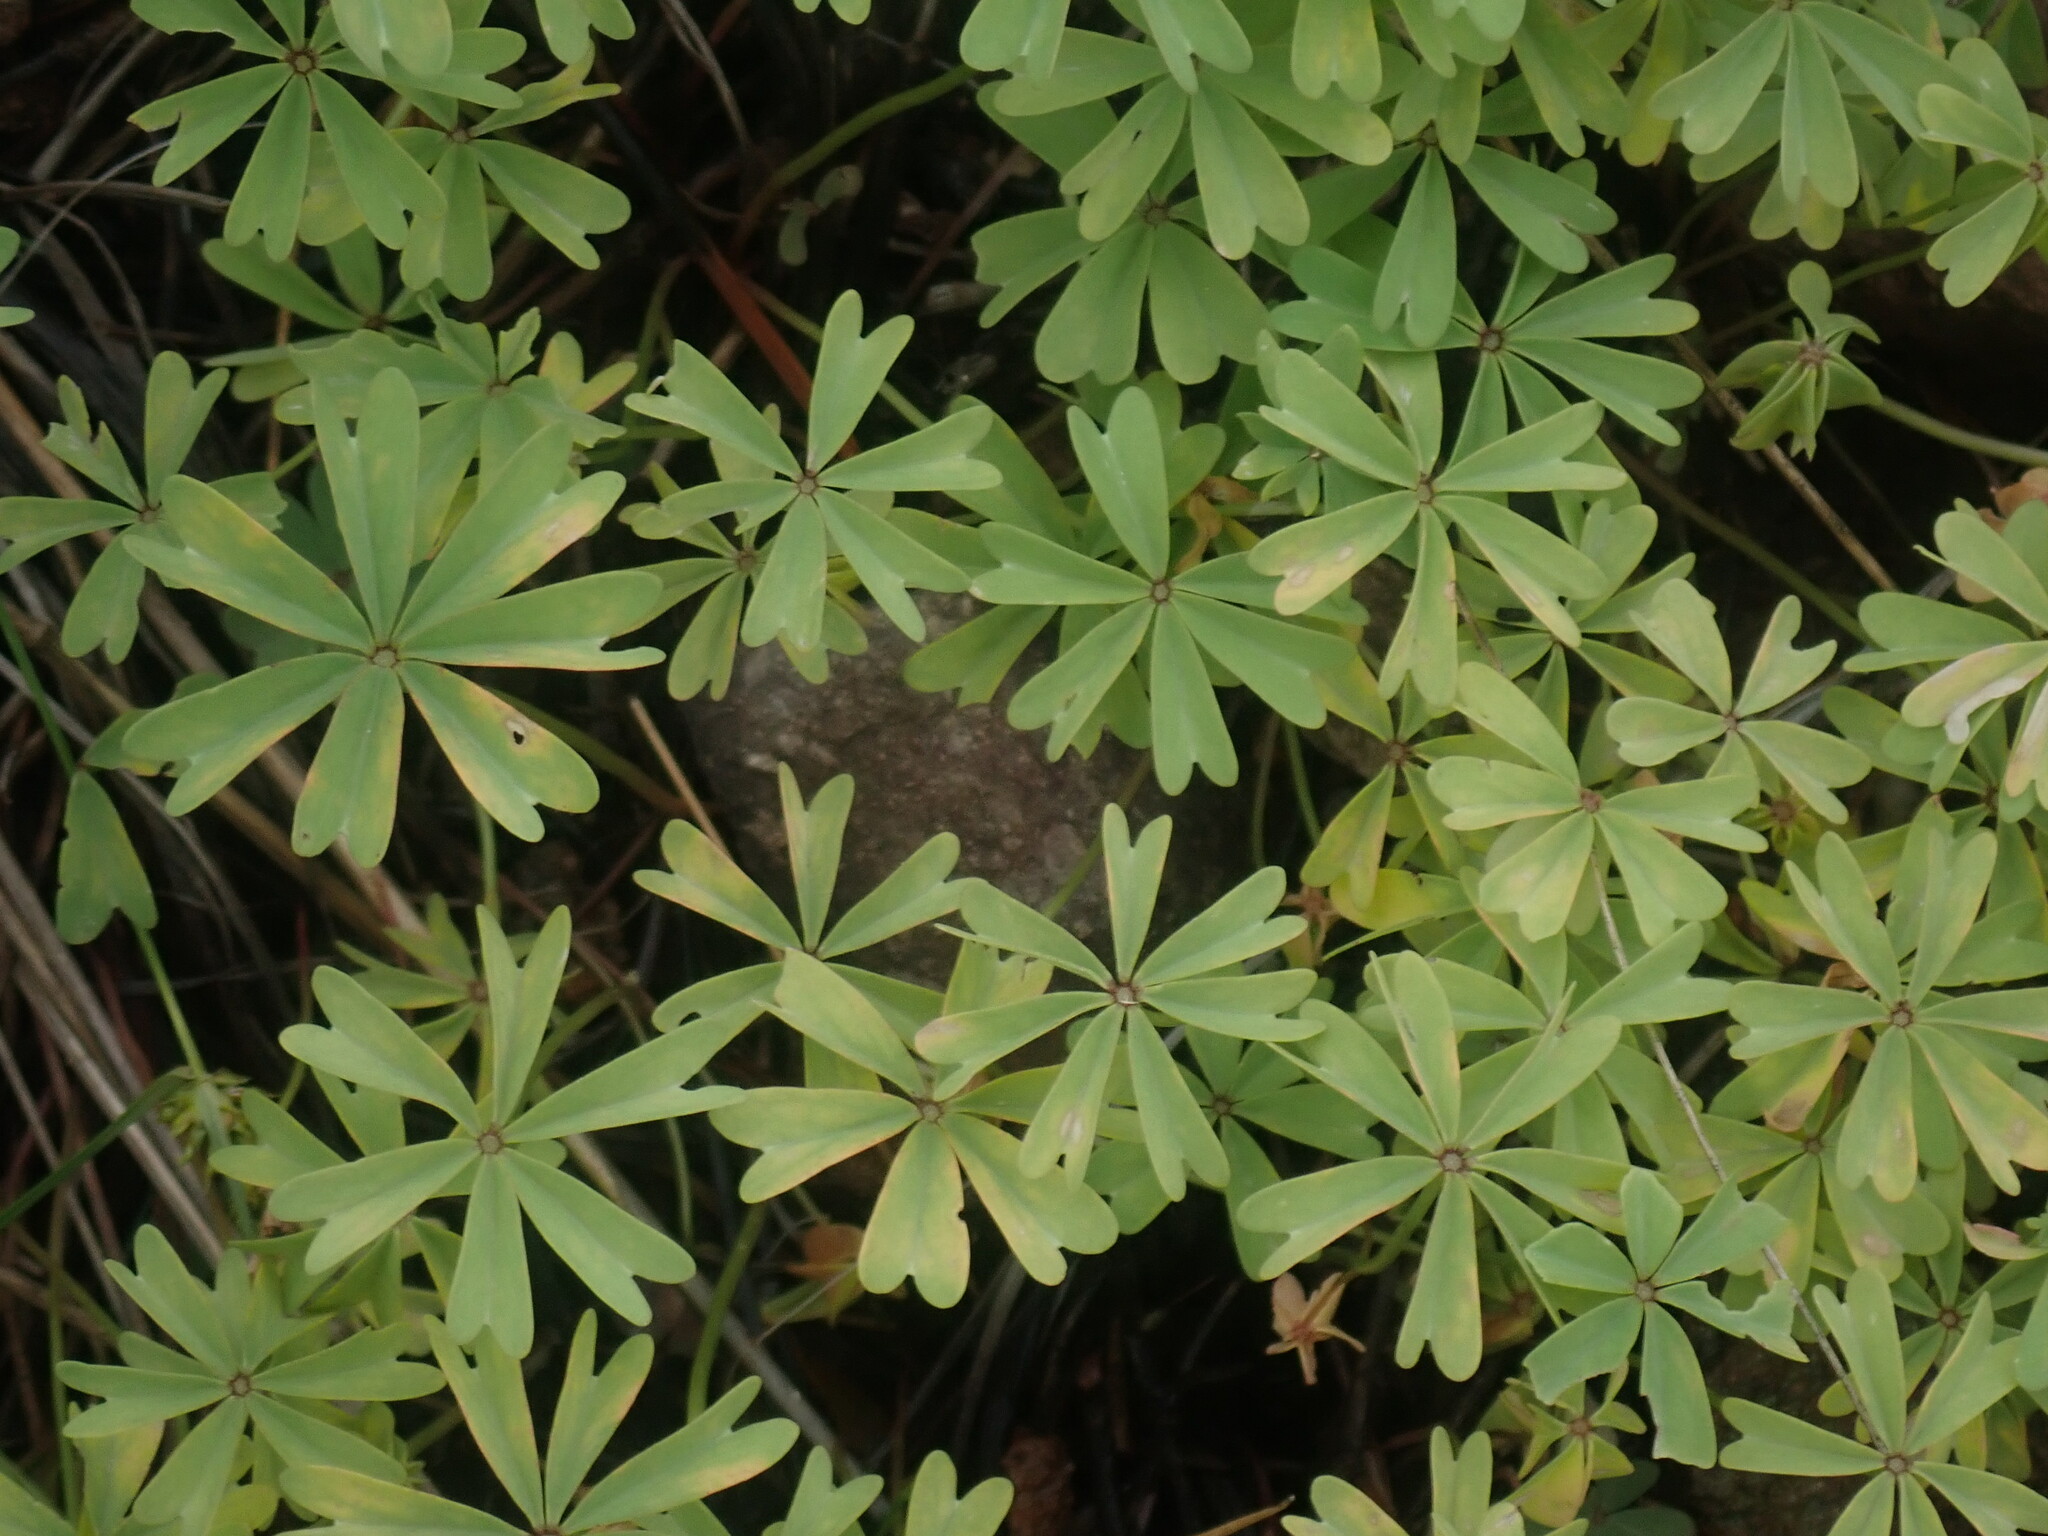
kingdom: Plantae
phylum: Tracheophyta
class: Magnoliopsida
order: Oxalidales
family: Oxalidaceae
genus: Oxalis
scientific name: Oxalis decaphylla
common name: Ten-leaved pink-sorrel
